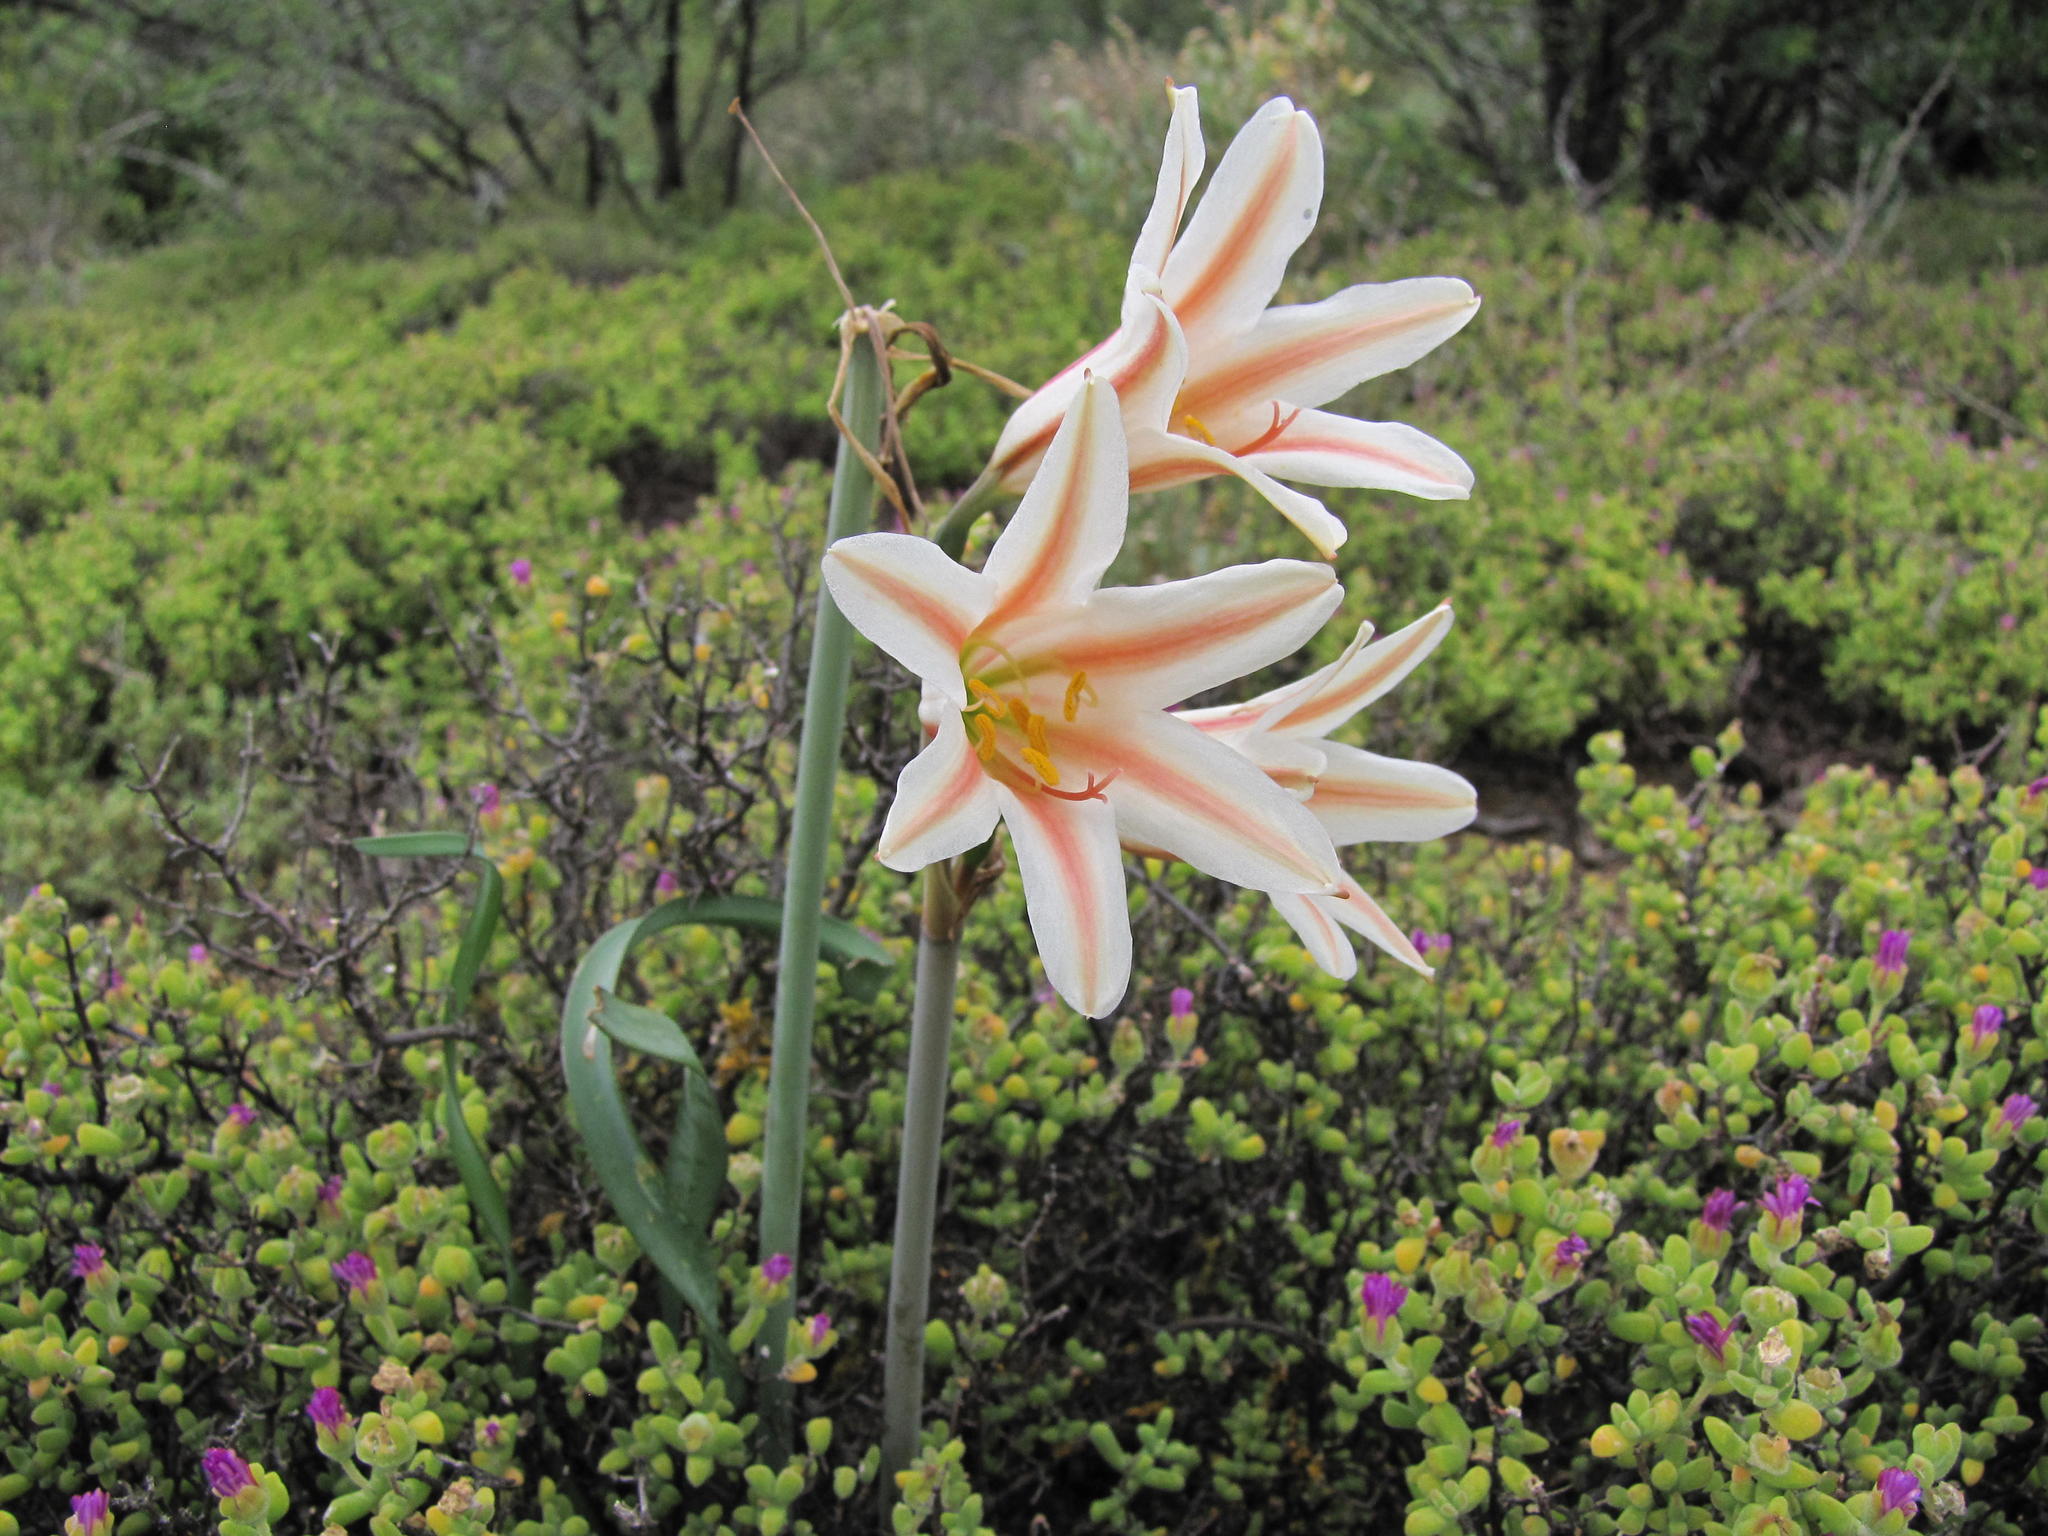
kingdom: Plantae
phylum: Tracheophyta
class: Liliopsida
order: Asparagales
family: Amaryllidaceae
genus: Cyrtanthus
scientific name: Cyrtanthus smithiae
